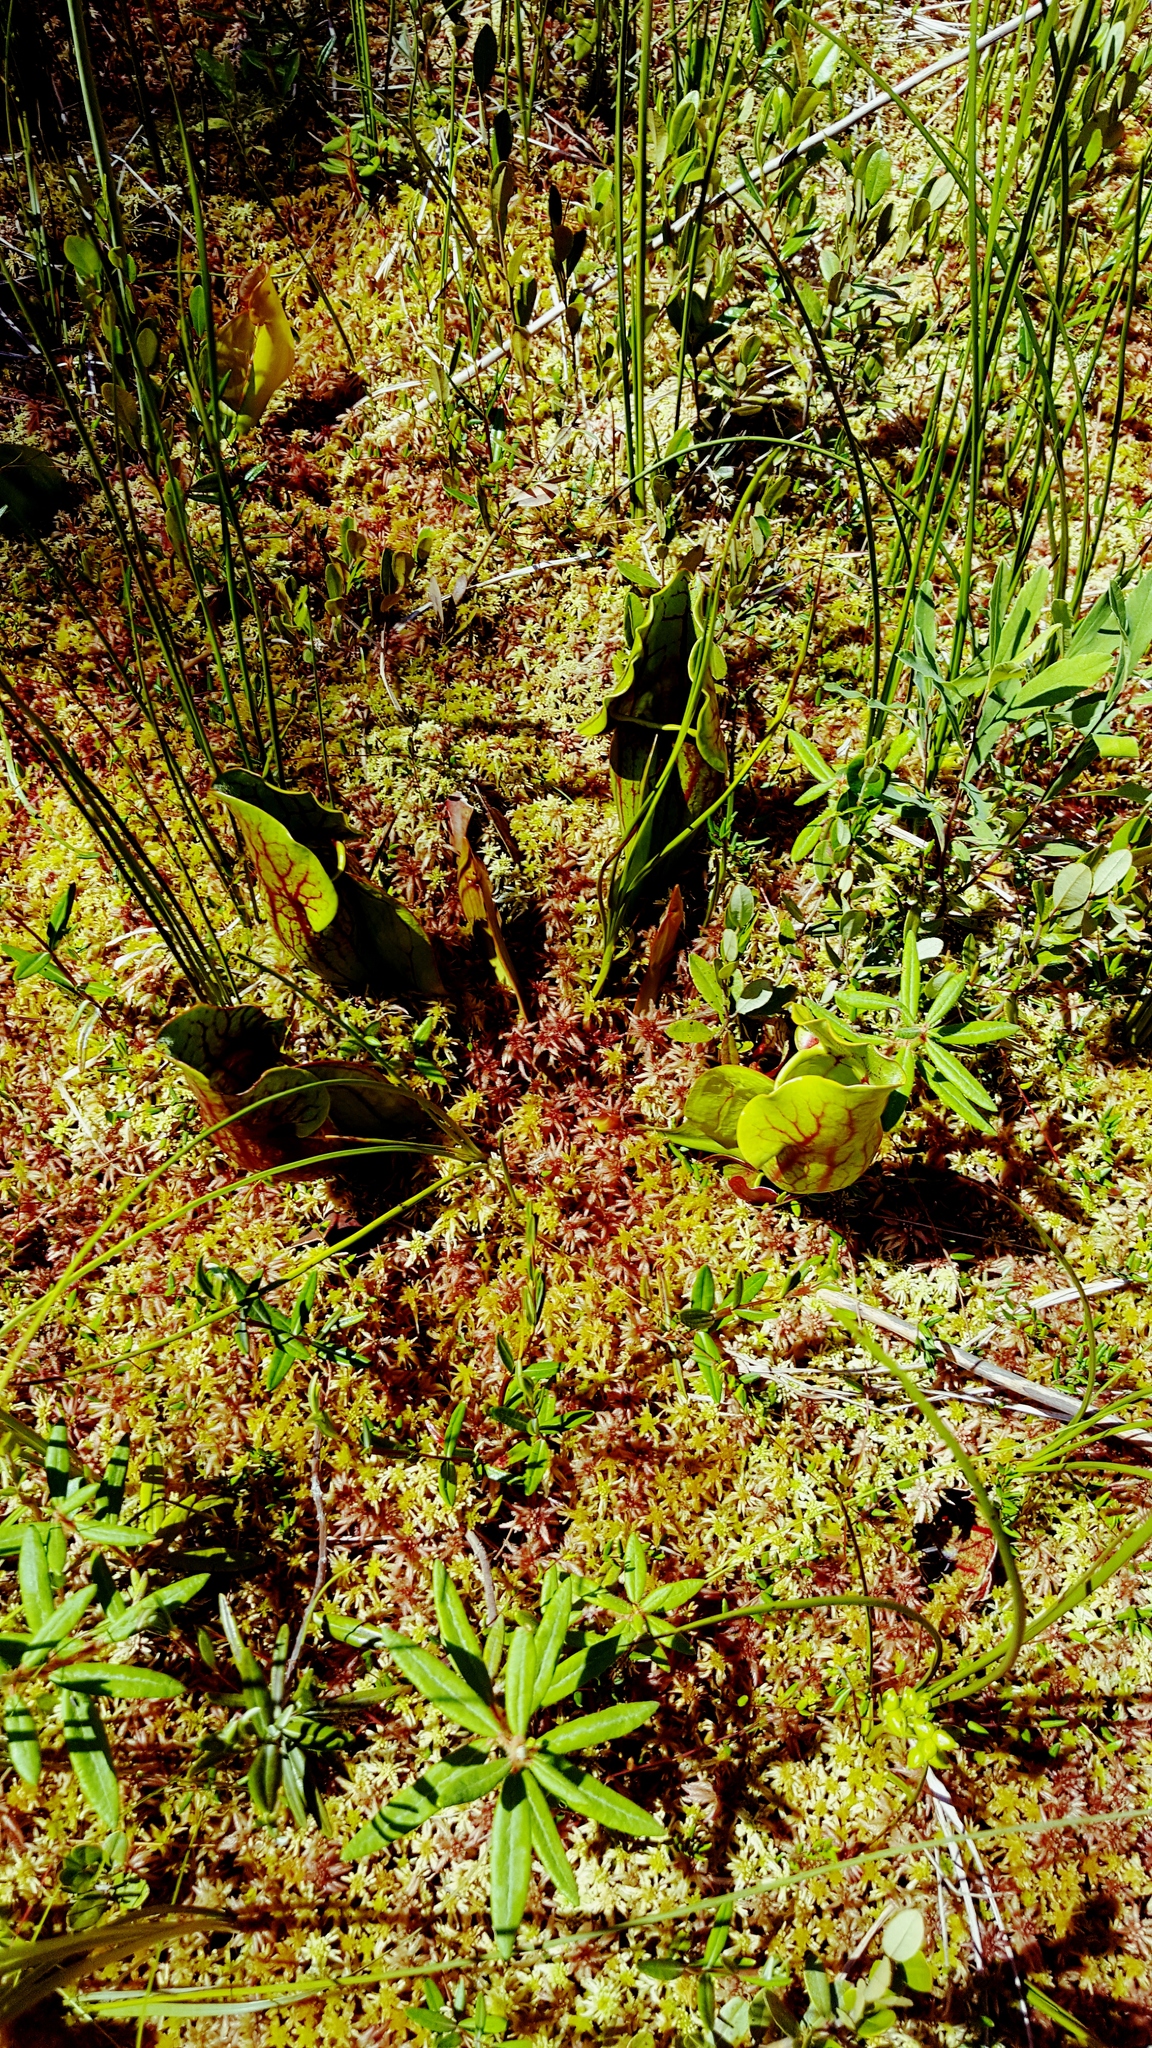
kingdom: Plantae
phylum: Tracheophyta
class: Magnoliopsida
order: Ericales
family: Sarraceniaceae
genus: Sarracenia
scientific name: Sarracenia purpurea
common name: Pitcherplant
